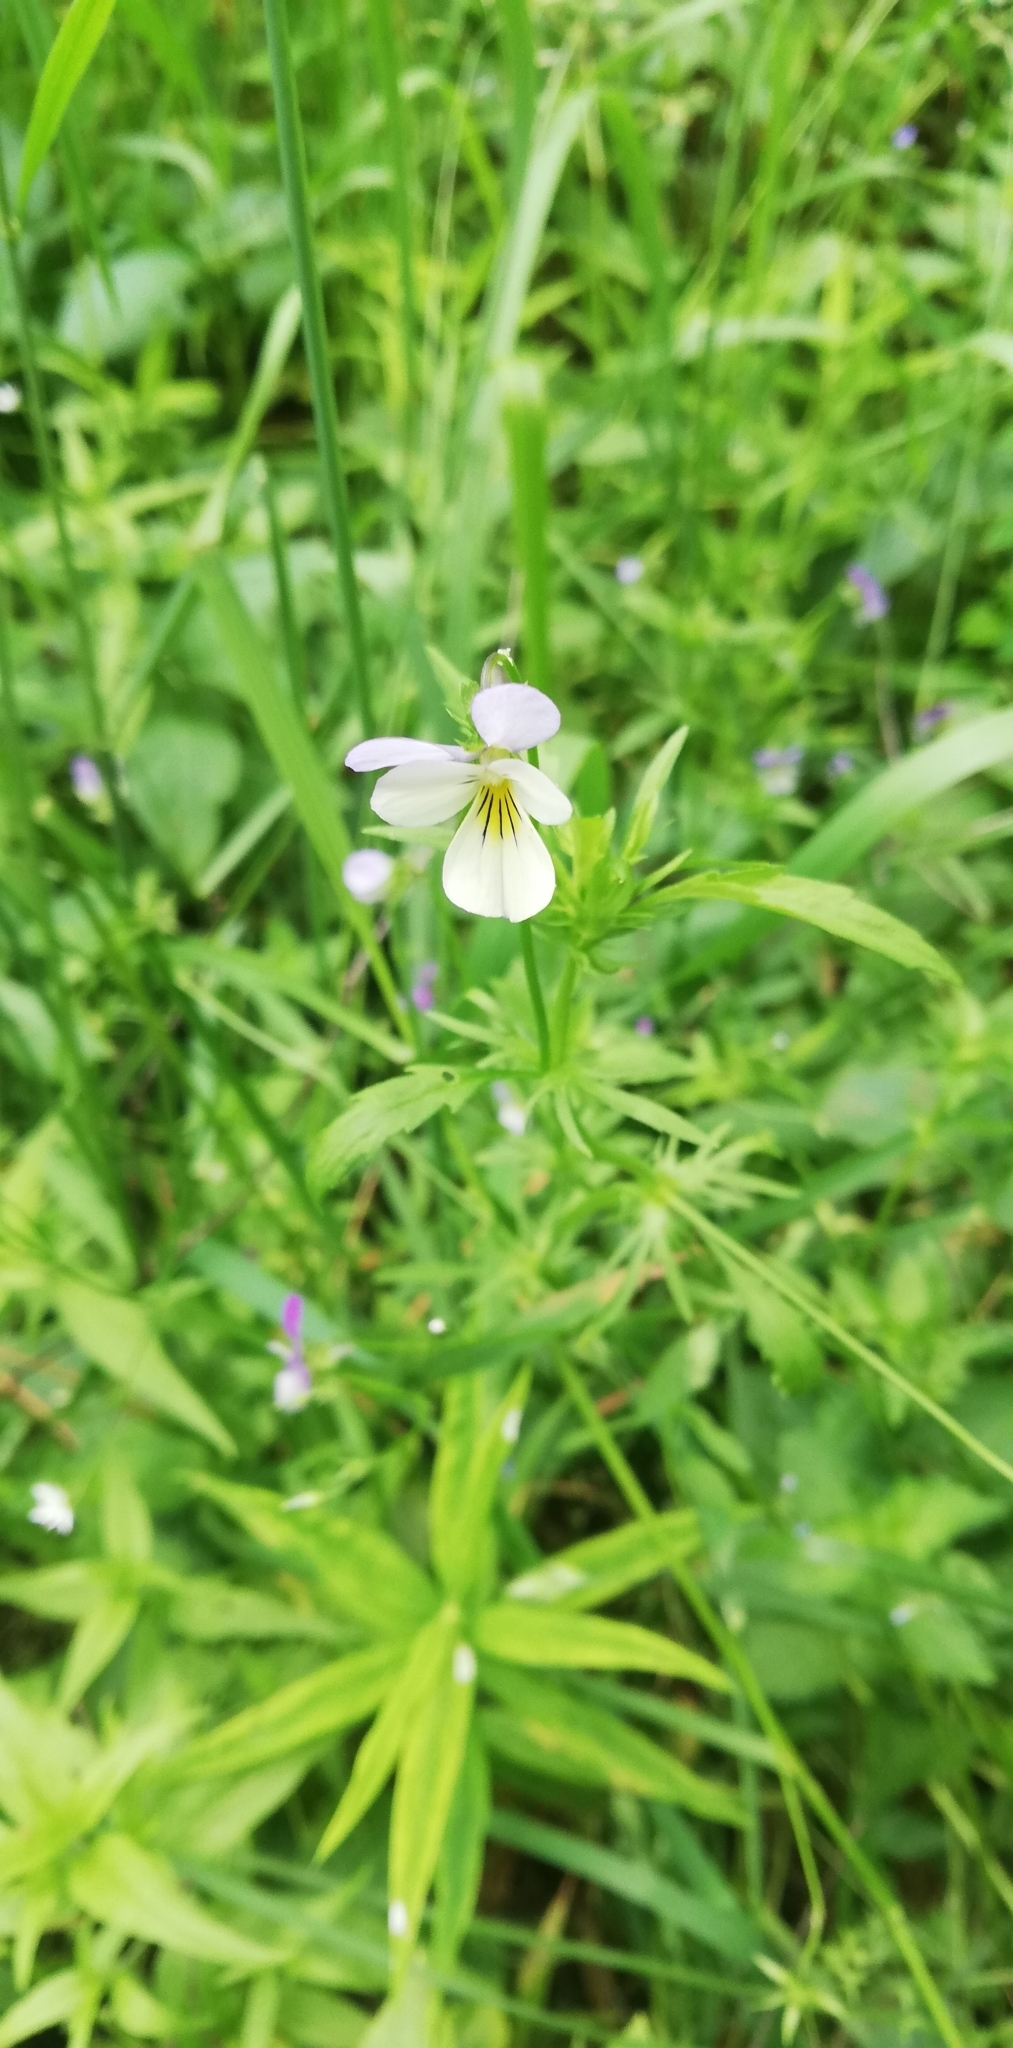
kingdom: Plantae
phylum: Tracheophyta
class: Magnoliopsida
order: Malpighiales
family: Violaceae
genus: Viola
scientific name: Viola arvensis
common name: Field pansy
